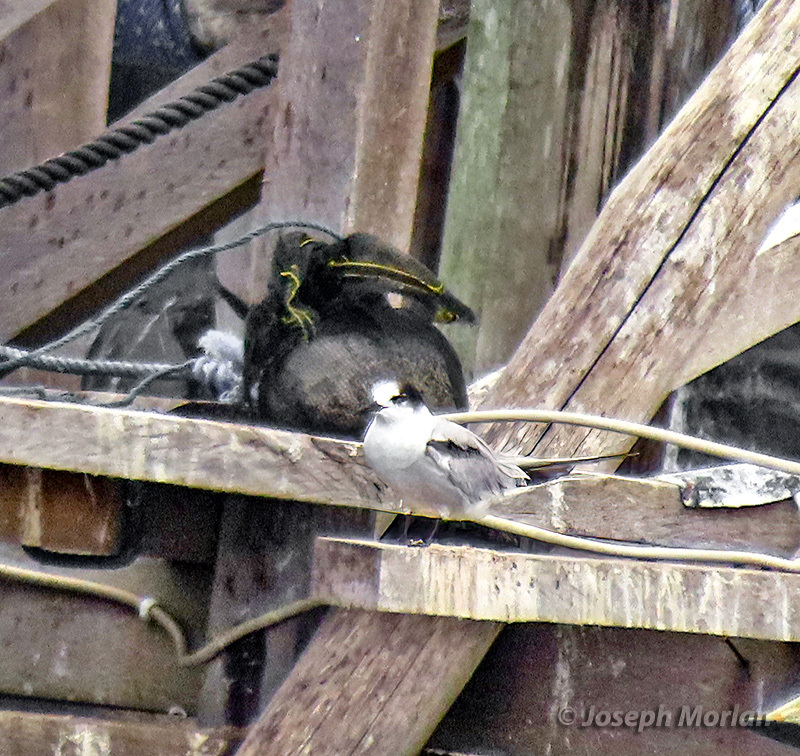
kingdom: Animalia
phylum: Chordata
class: Aves
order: Charadriiformes
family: Laridae
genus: Sterna
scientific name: Sterna hirundo
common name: Common tern
